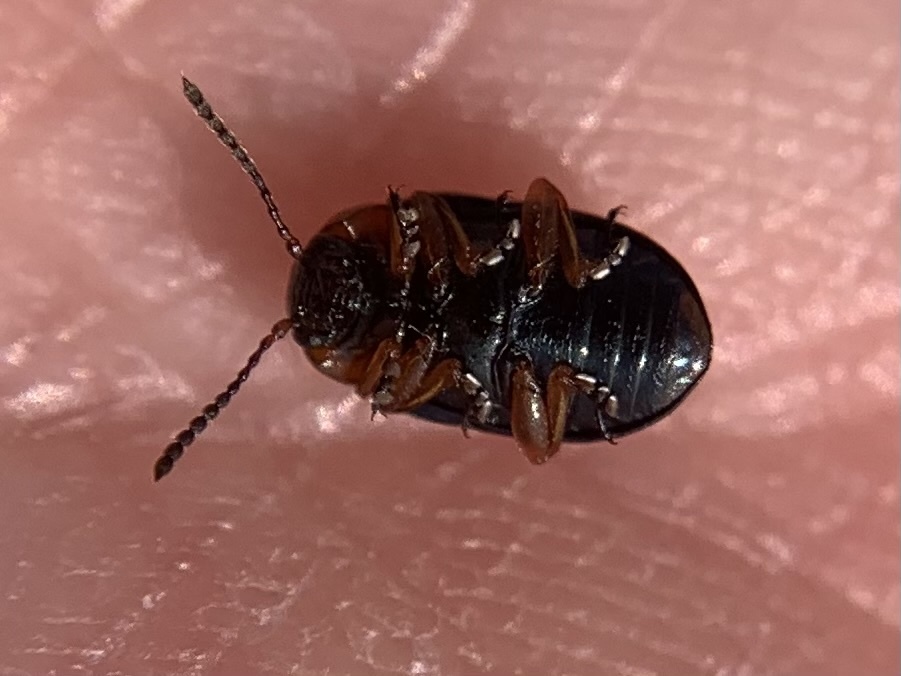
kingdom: Animalia
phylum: Arthropoda
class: Insecta
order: Coleoptera
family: Chrysomelidae
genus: Gastrophysa
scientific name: Gastrophysa polygoni
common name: Knotweed leaf beetle
